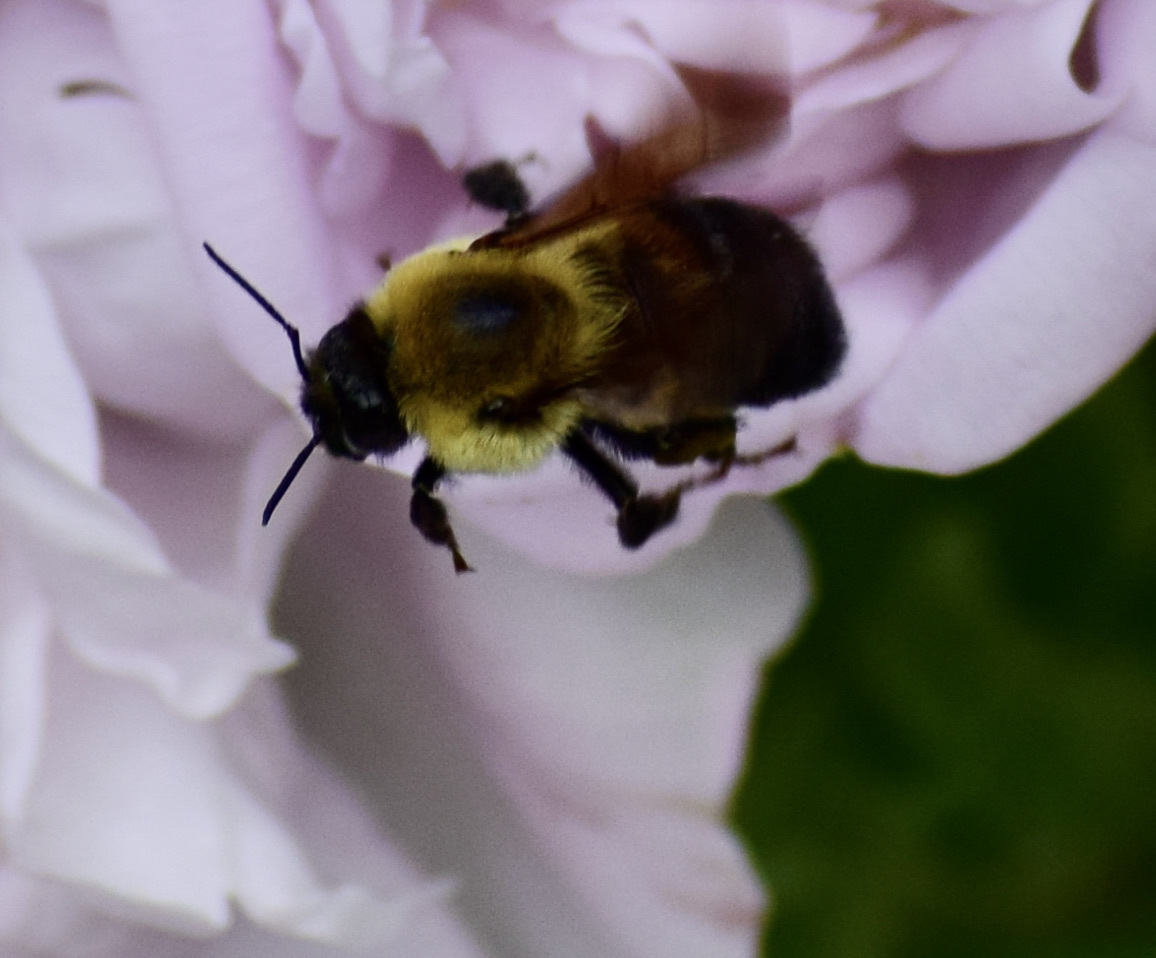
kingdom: Animalia
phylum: Arthropoda
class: Insecta
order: Hymenoptera
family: Apidae
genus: Bombus
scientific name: Bombus griseocollis
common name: Brown-belted bumble bee
